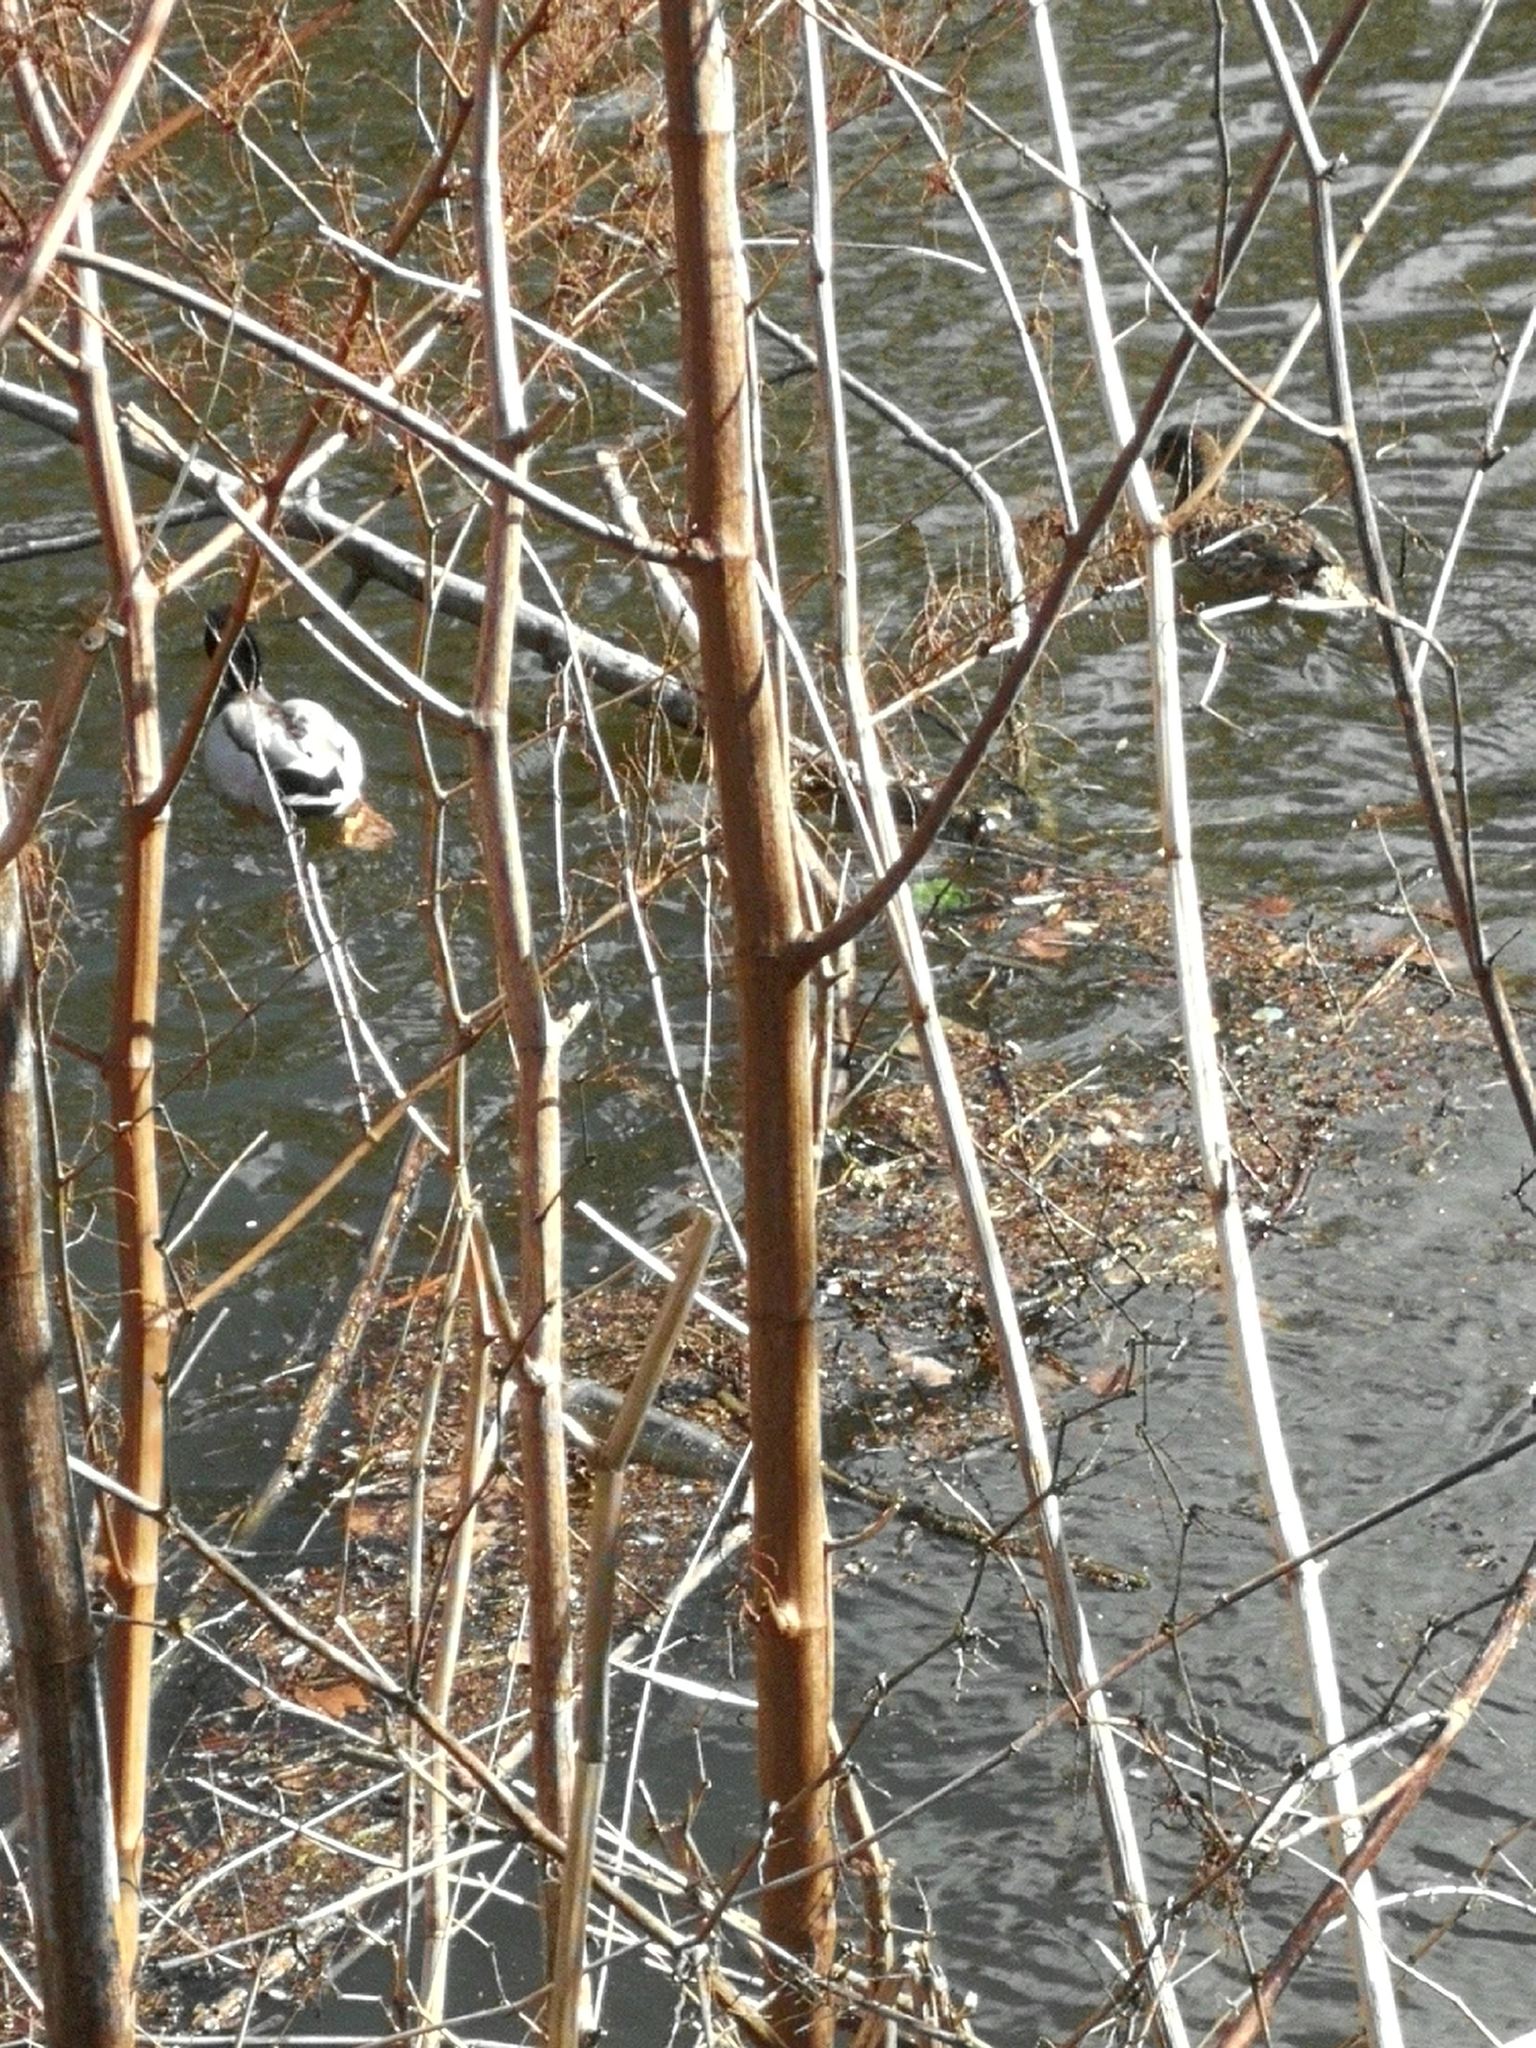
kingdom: Animalia
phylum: Chordata
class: Aves
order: Anseriformes
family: Anatidae
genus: Anas
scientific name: Anas platyrhynchos
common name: Mallard
